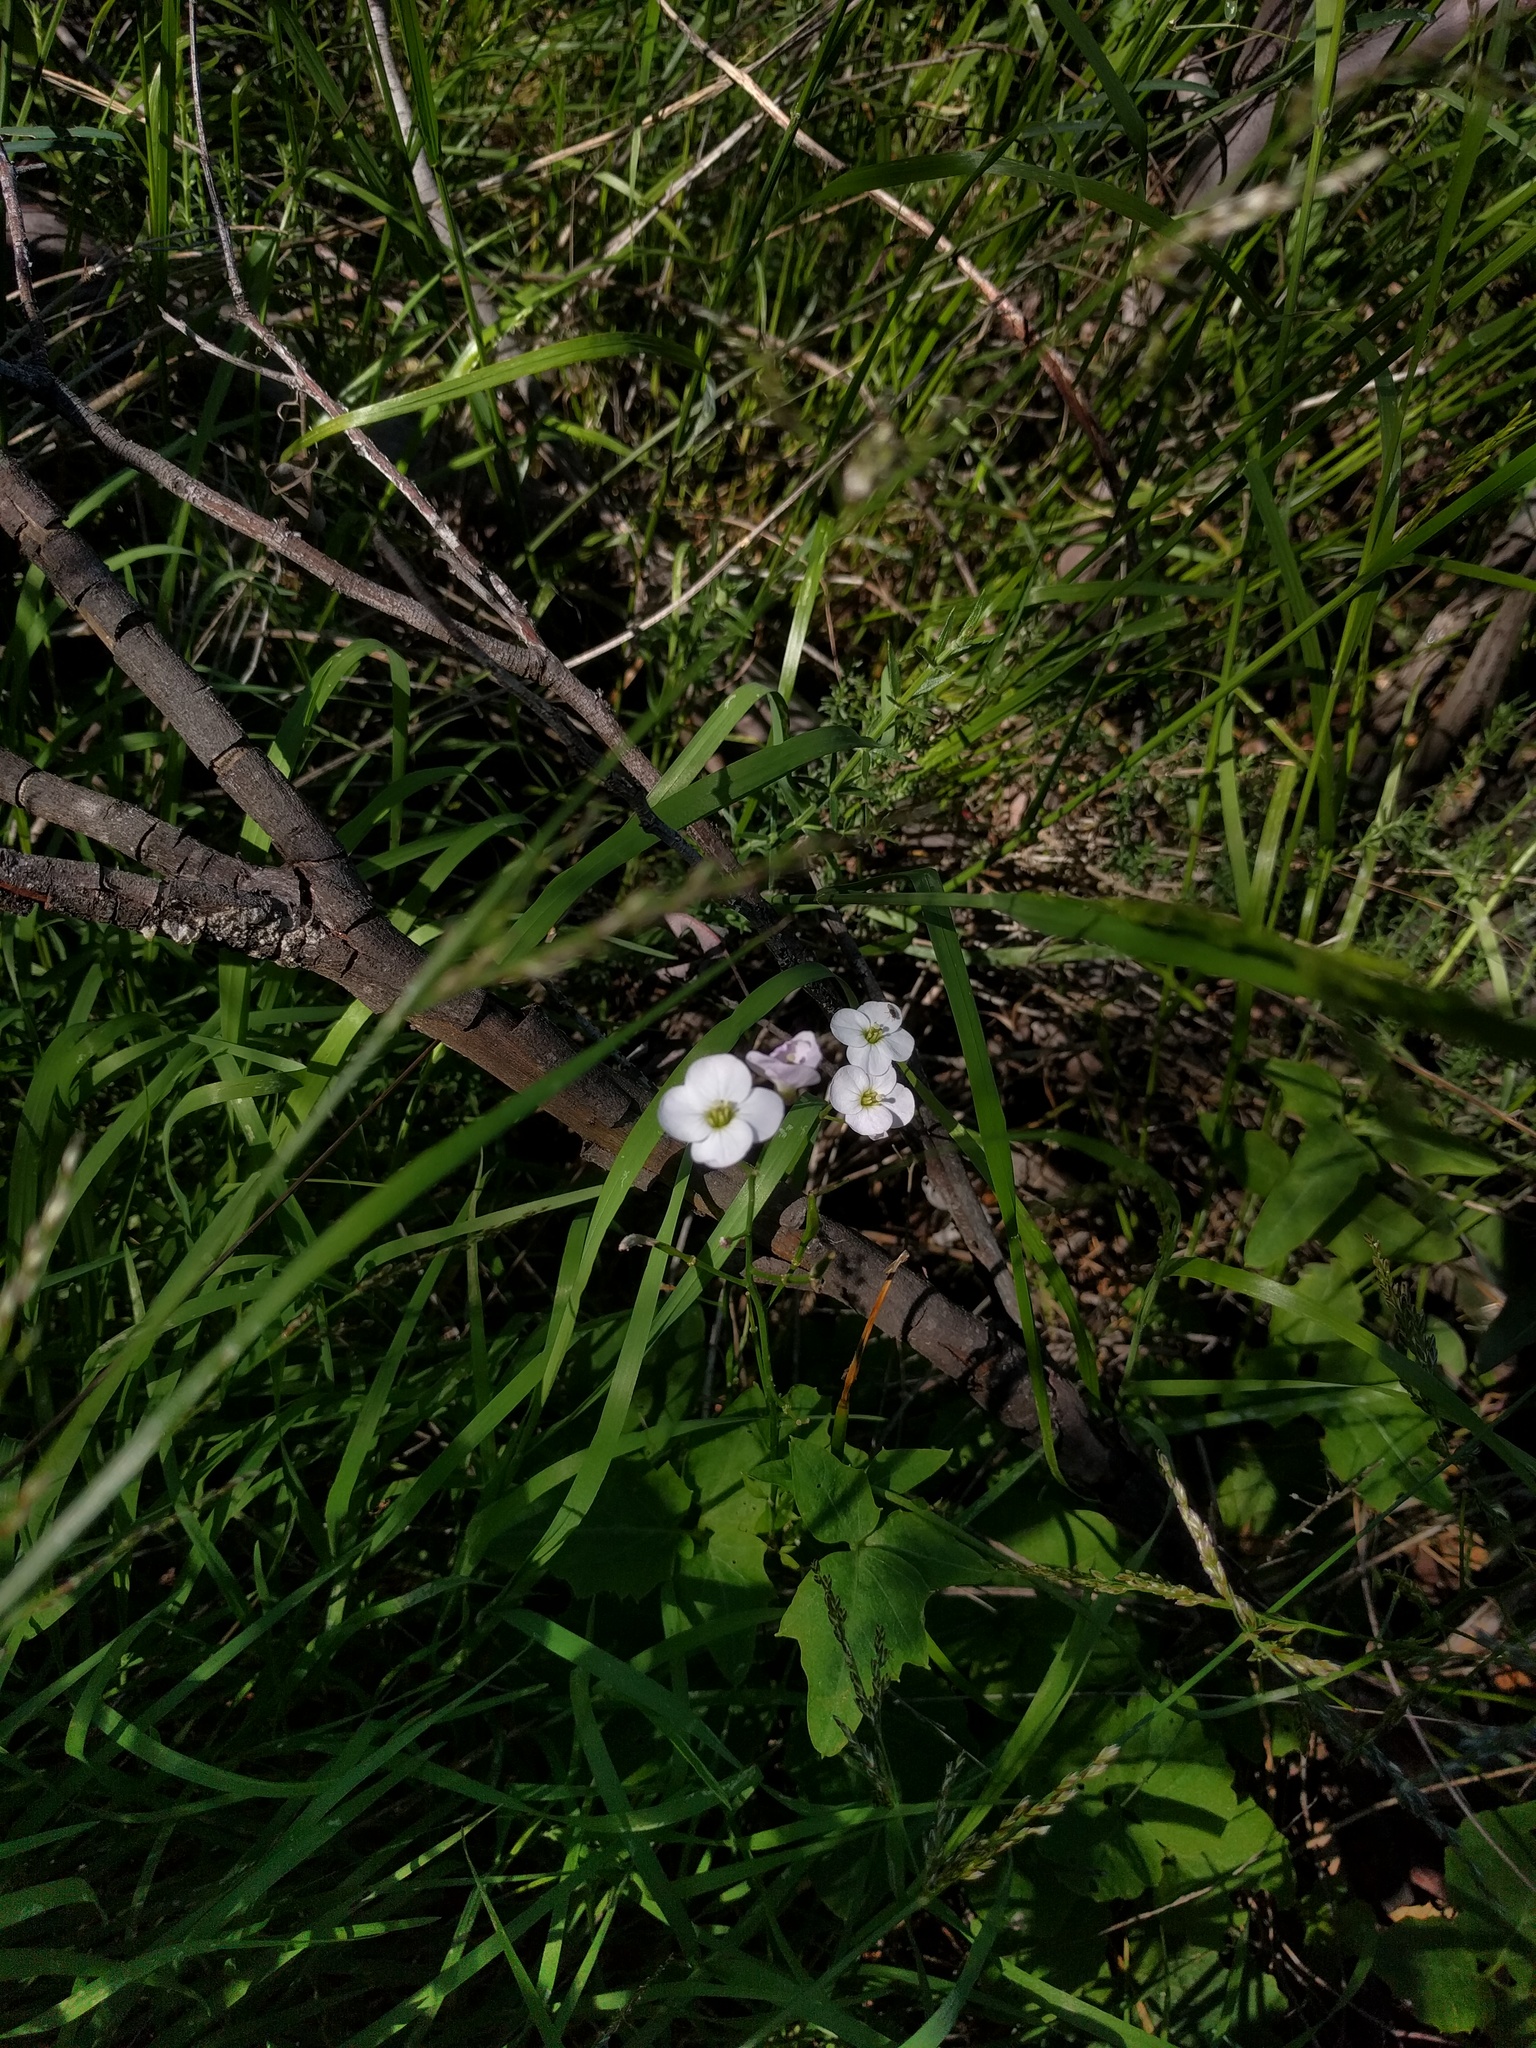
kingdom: Plantae
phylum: Tracheophyta
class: Magnoliopsida
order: Brassicales
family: Brassicaceae
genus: Cardamine
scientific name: Cardamine californica
